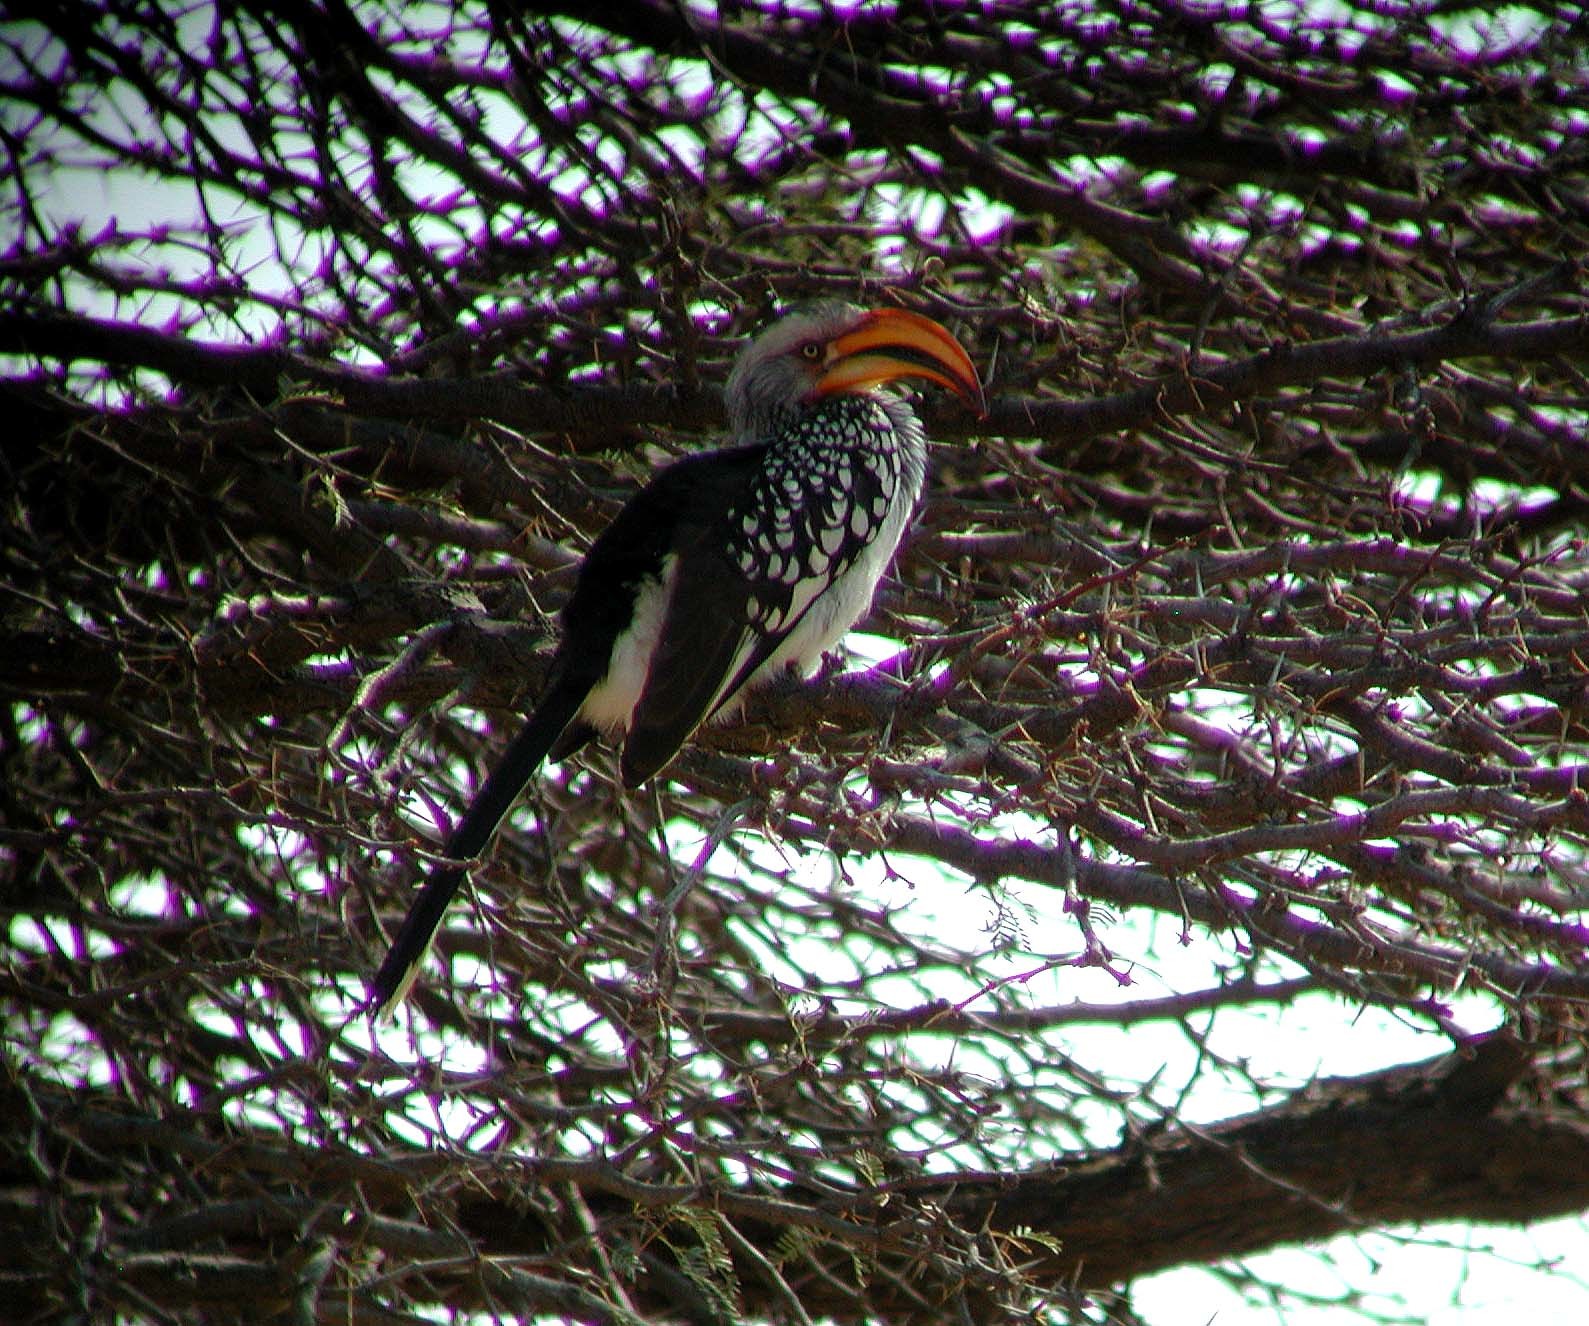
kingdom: Animalia
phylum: Chordata
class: Aves
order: Bucerotiformes
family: Bucerotidae
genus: Tockus
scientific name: Tockus leucomelas
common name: Southern yellow-billed hornbill
